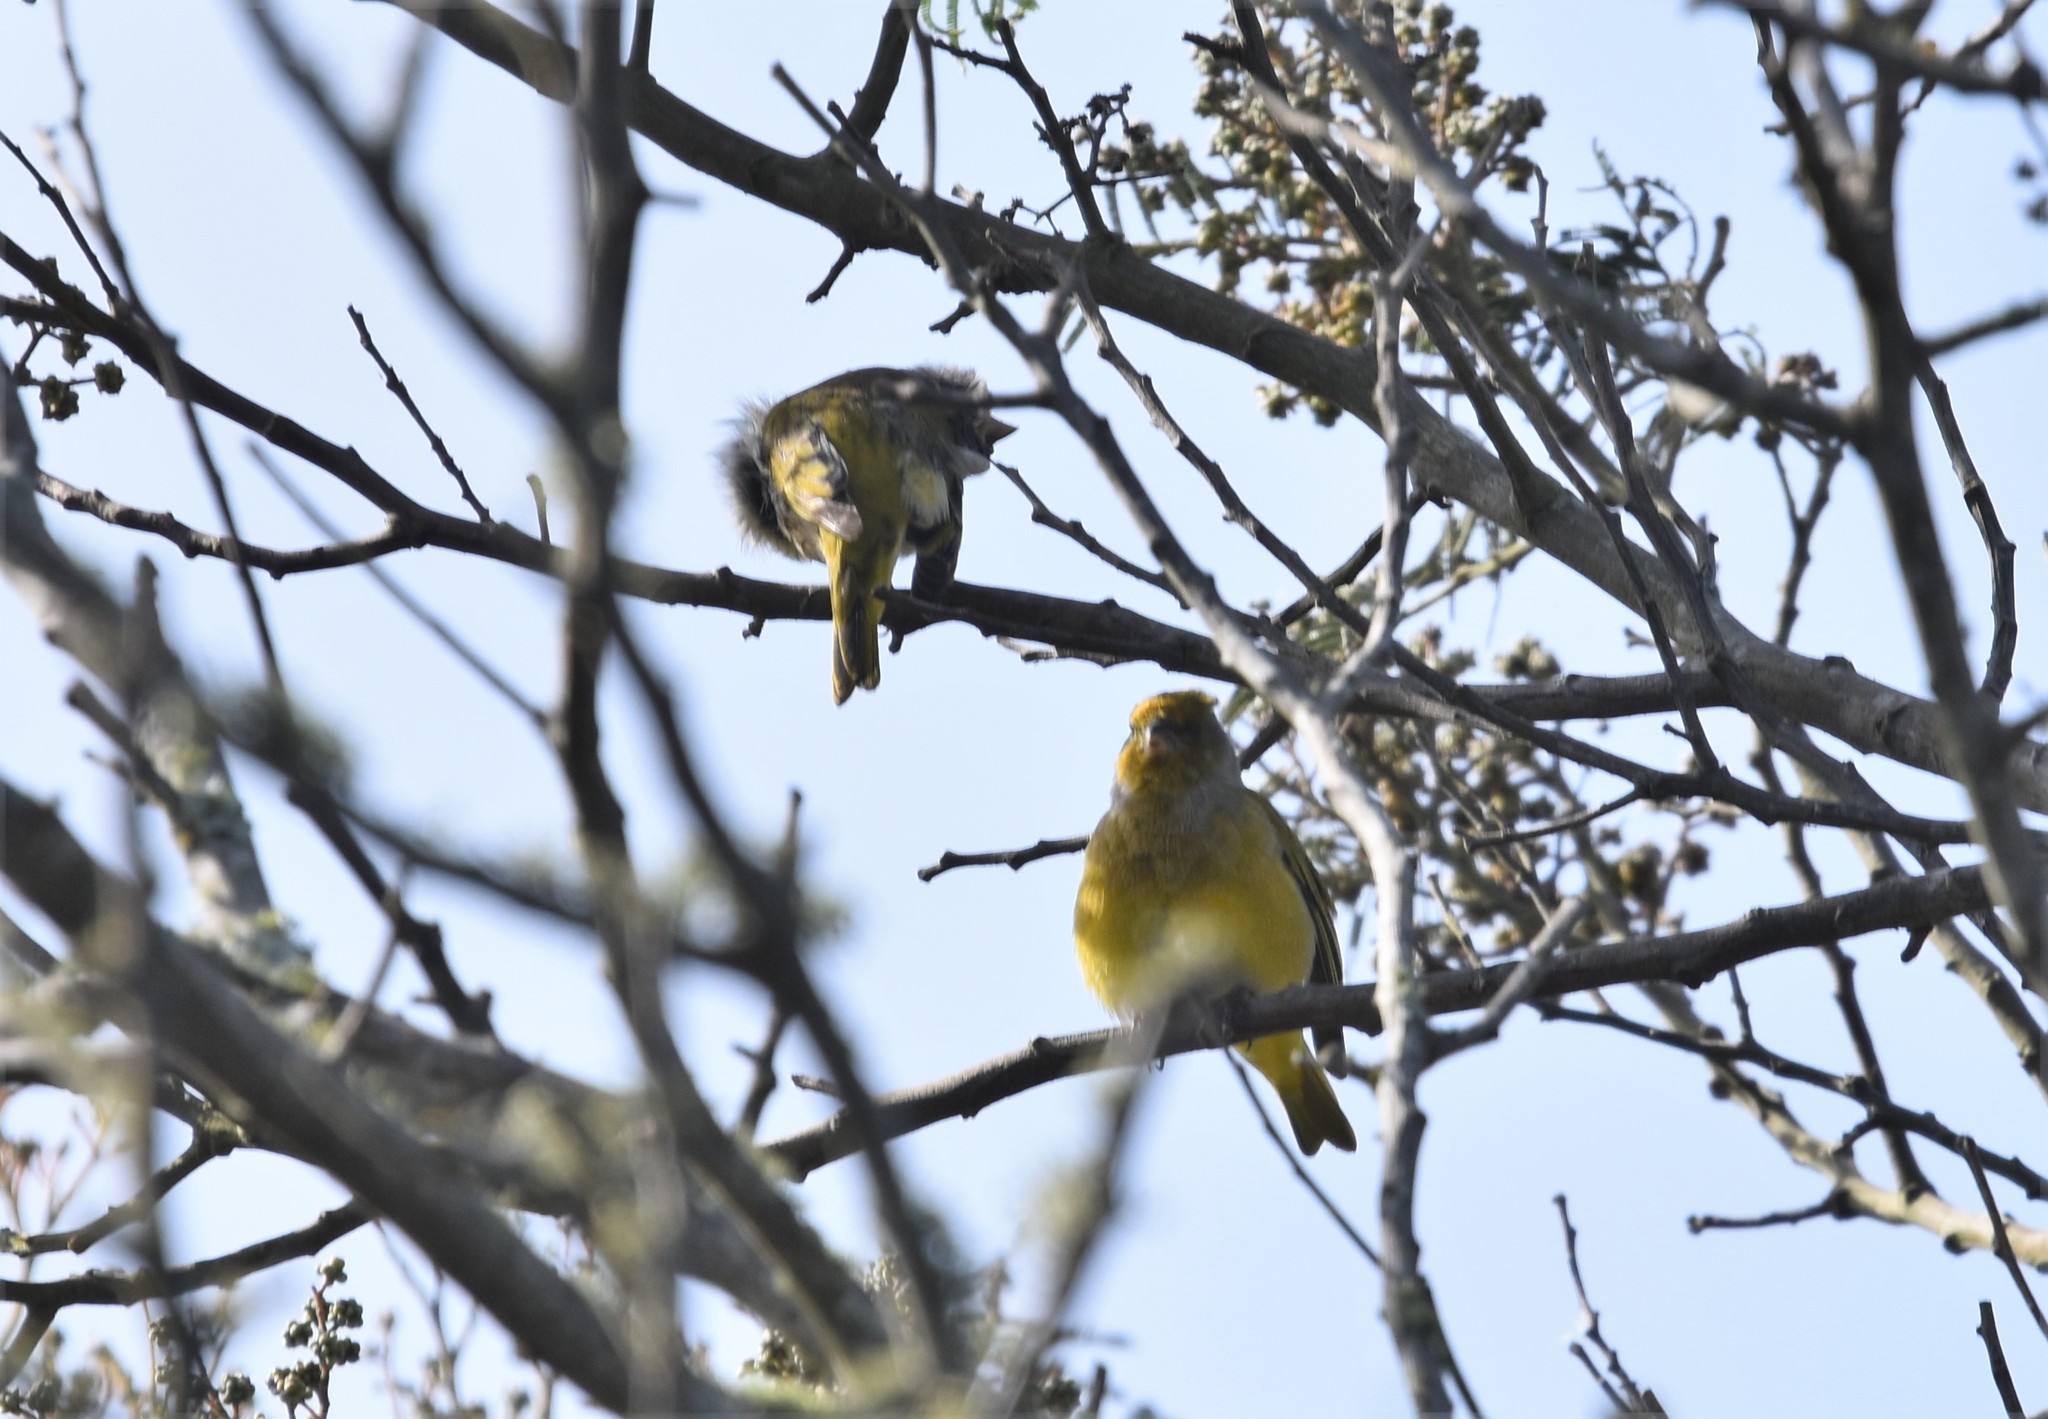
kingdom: Animalia
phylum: Chordata
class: Aves
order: Passeriformes
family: Fringillidae
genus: Serinus
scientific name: Serinus canicollis
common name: Cape canary
